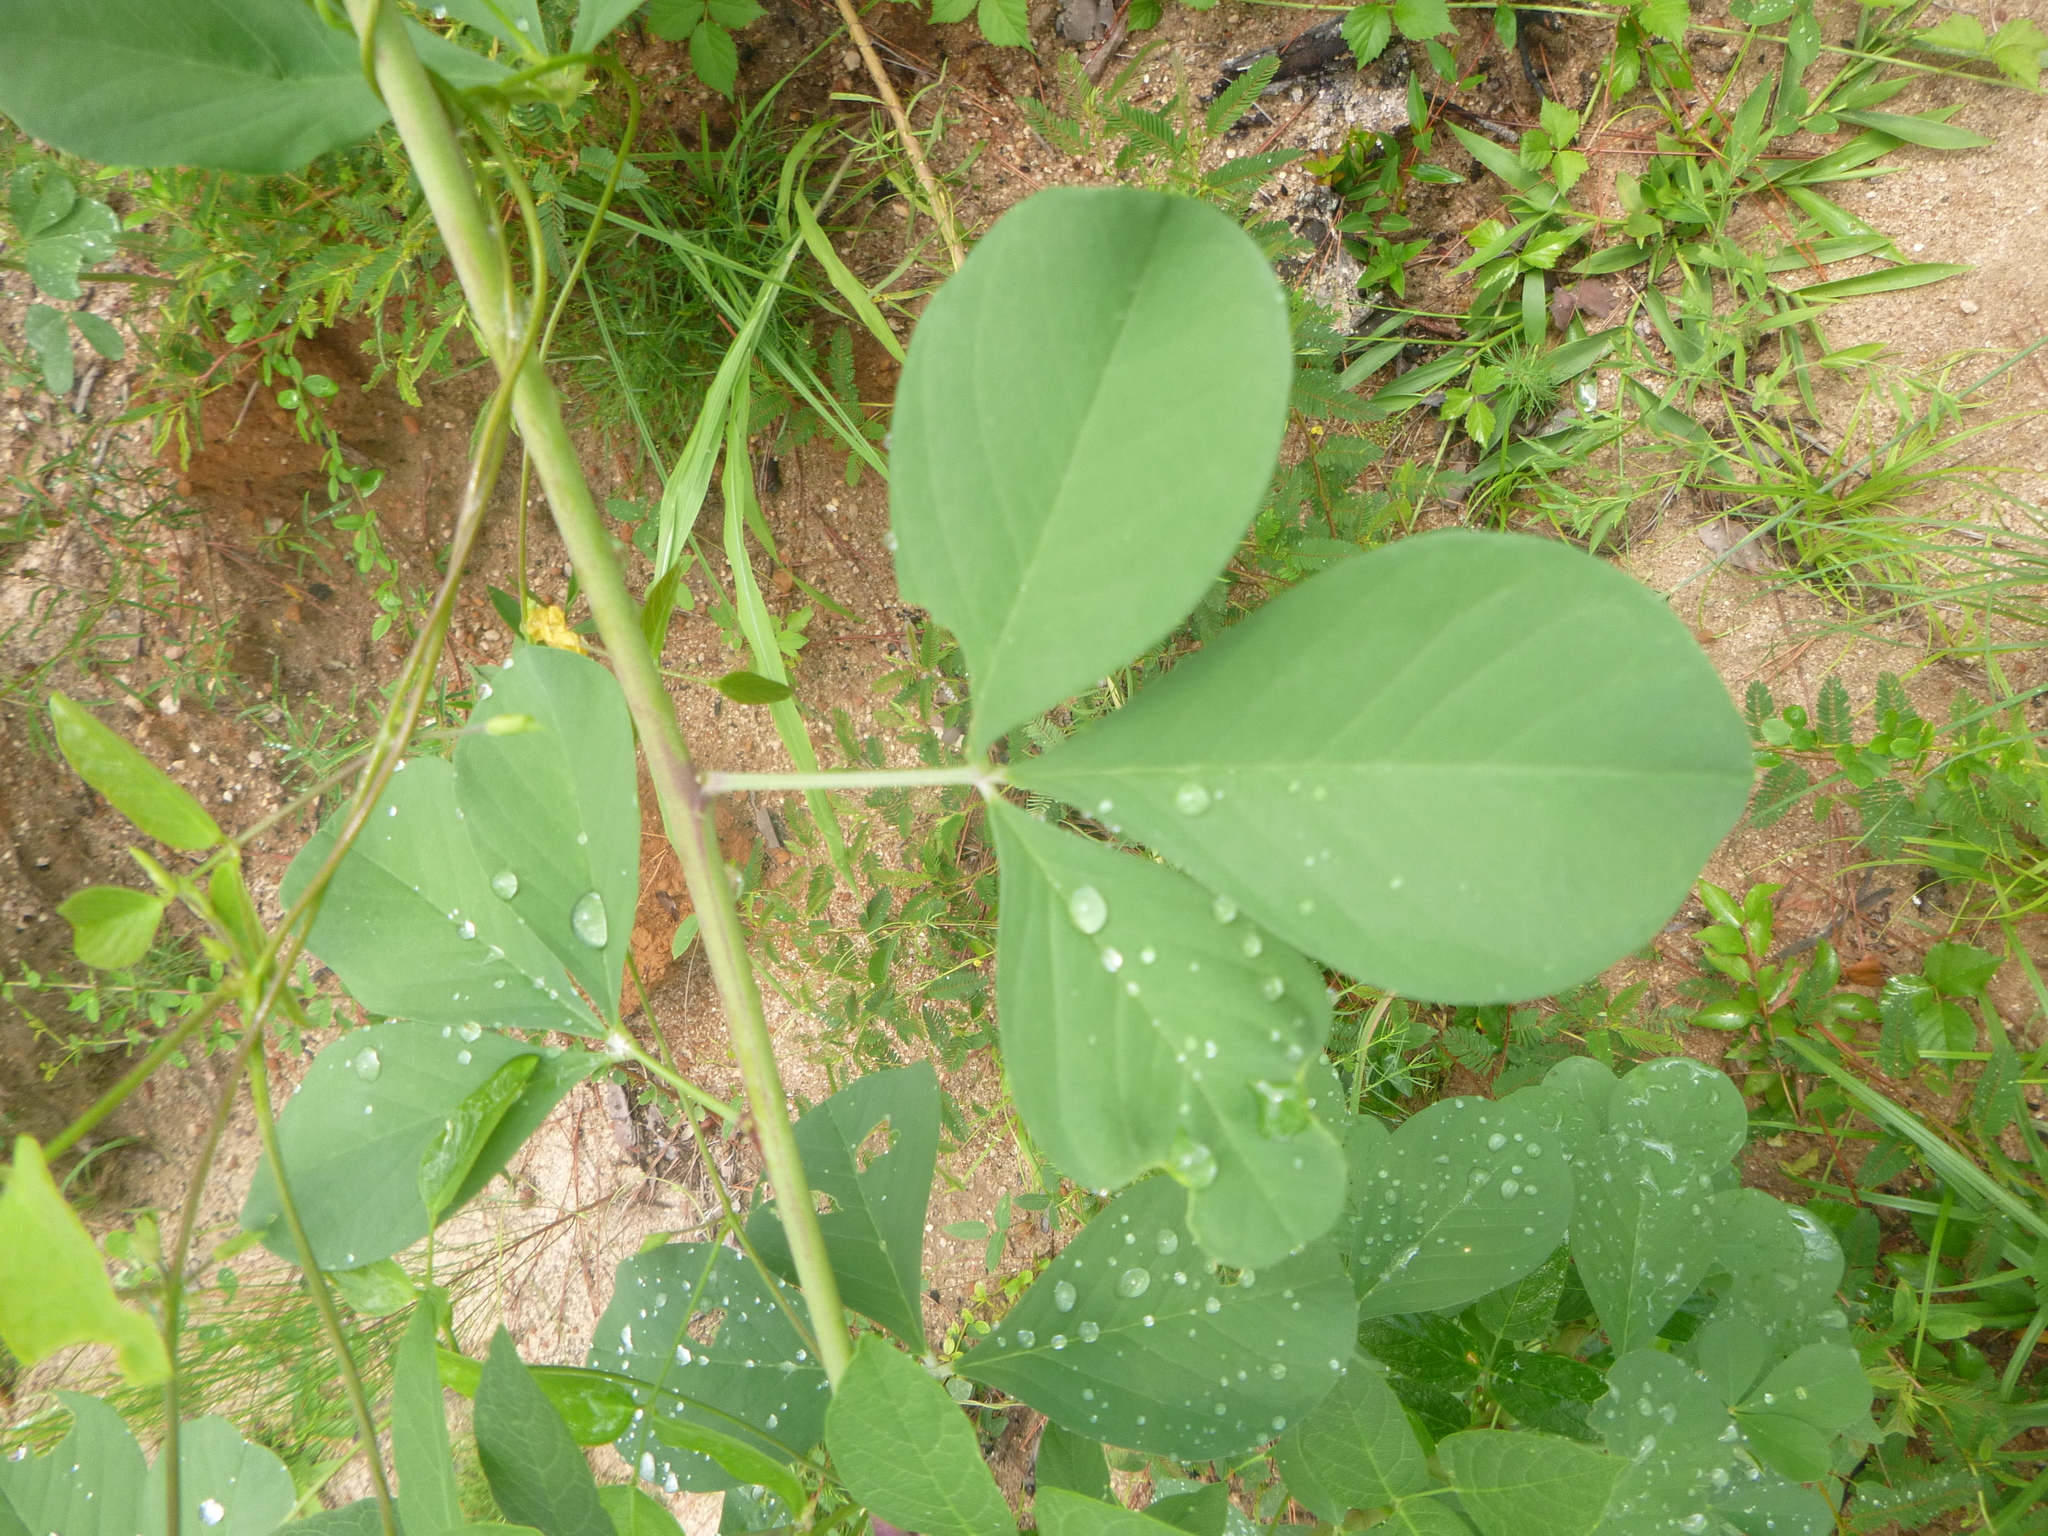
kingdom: Plantae
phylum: Tracheophyta
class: Magnoliopsida
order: Fabales
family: Fabaceae
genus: Crotalaria
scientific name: Crotalaria pallida
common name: Smooth rattlebox
